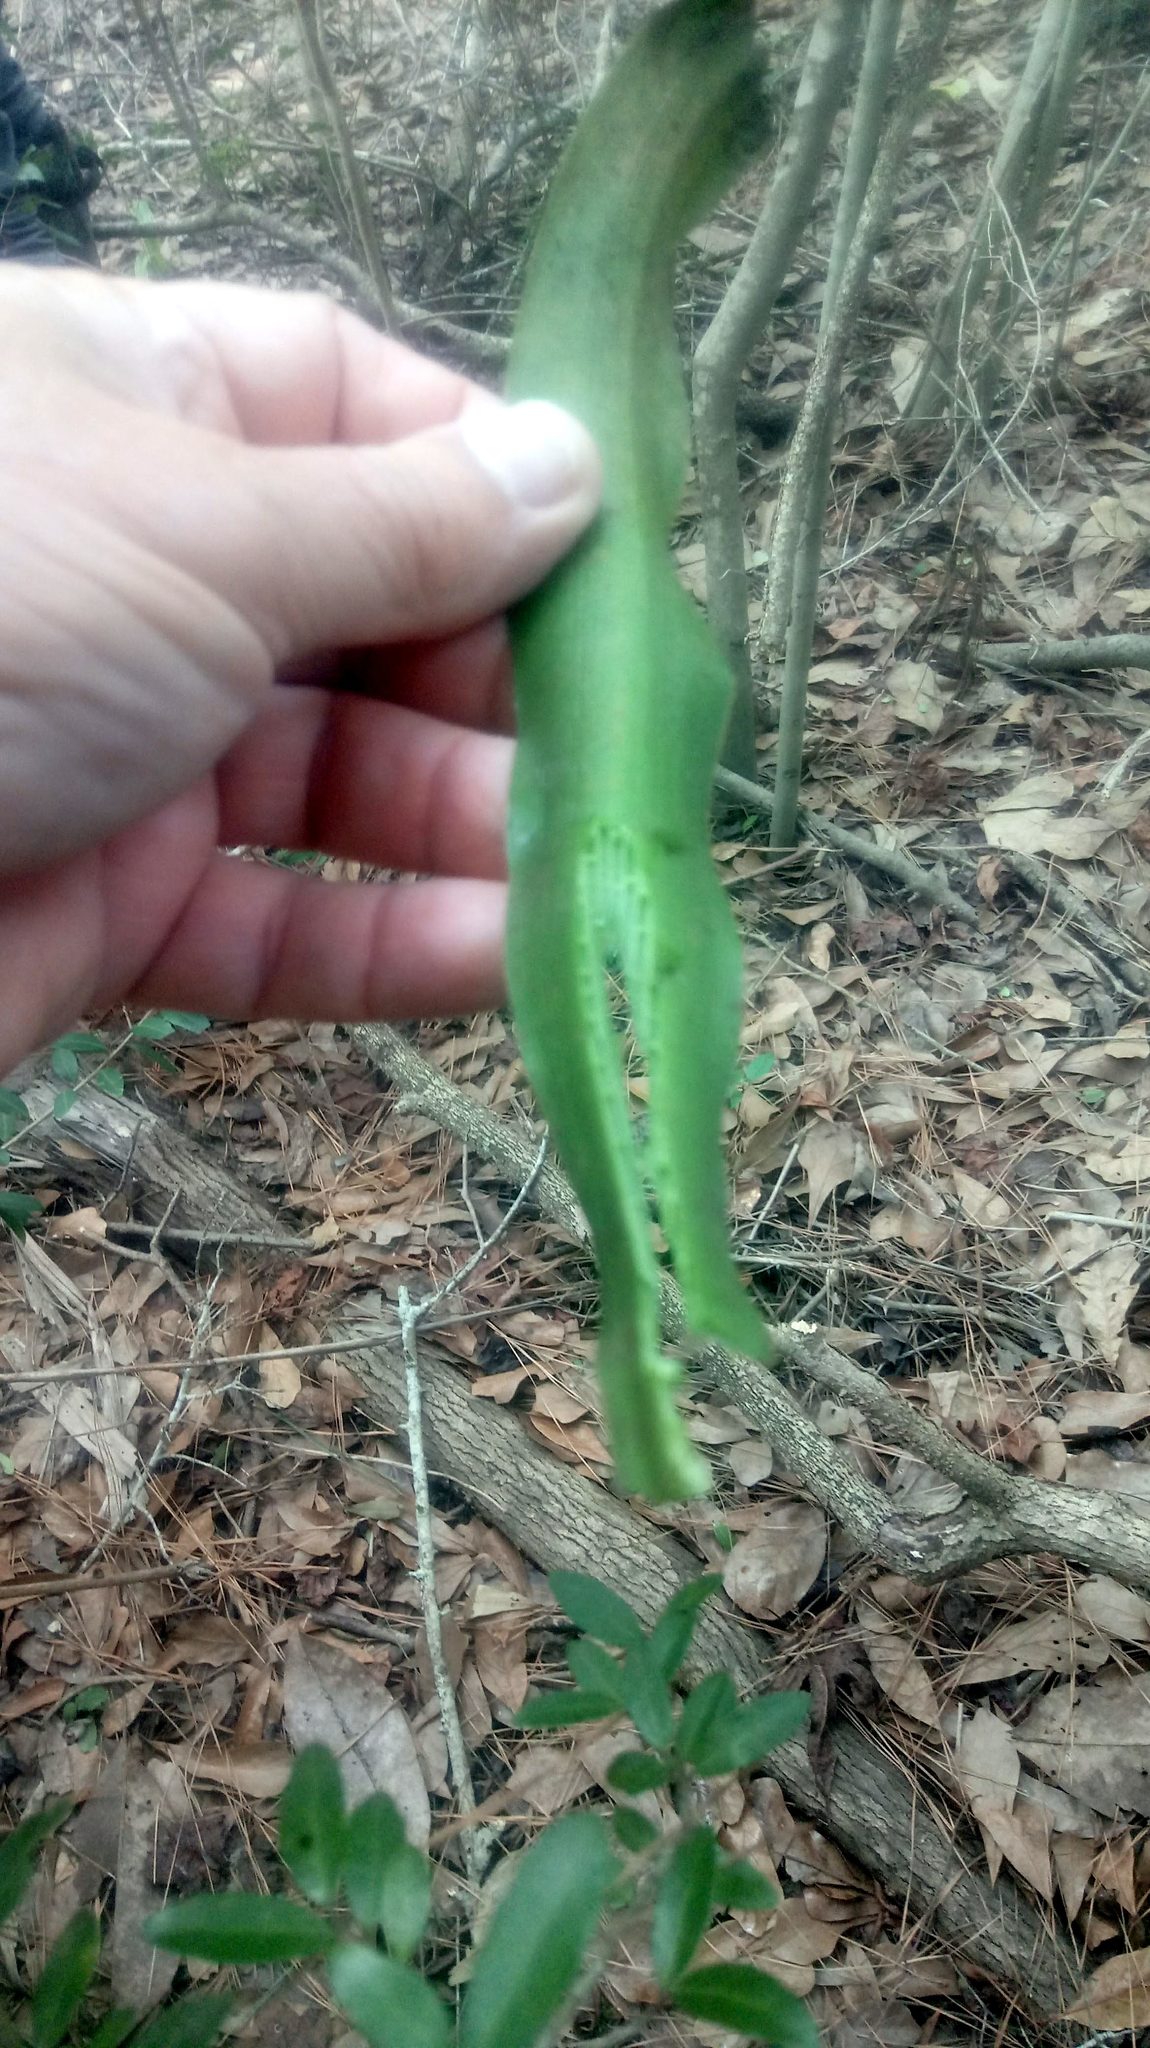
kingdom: Plantae
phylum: Tracheophyta
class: Liliopsida
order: Asparagales
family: Amaryllidaceae
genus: Crinum
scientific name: Crinum americanum
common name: Florida swamp-lily
